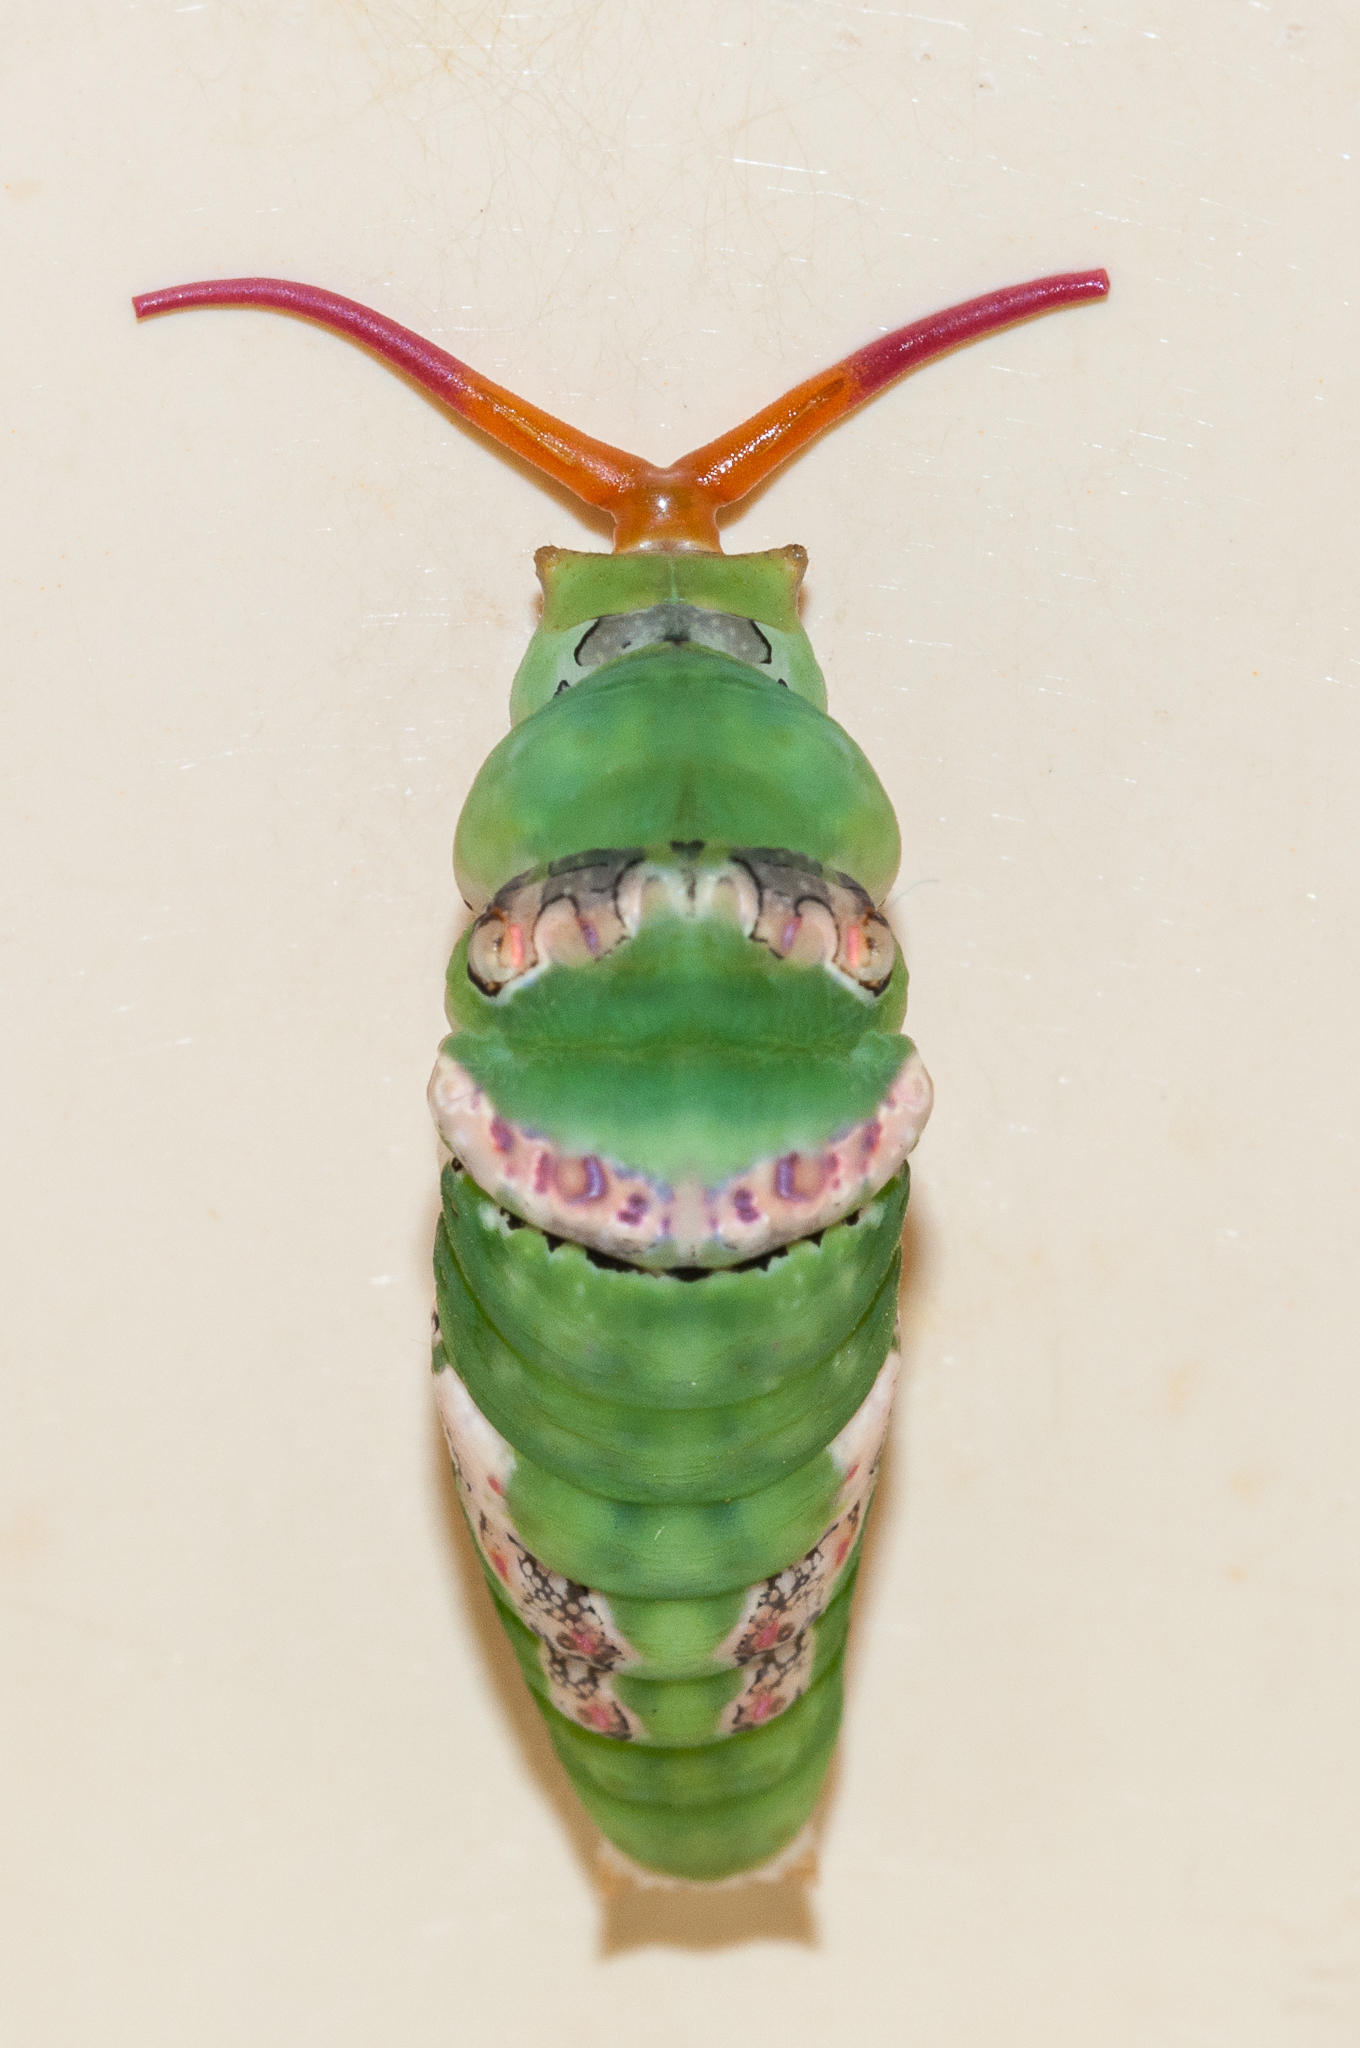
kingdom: Animalia
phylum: Arthropoda
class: Insecta
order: Lepidoptera
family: Papilionidae
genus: Papilio
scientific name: Papilio demodocus
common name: Christmas butterfly
